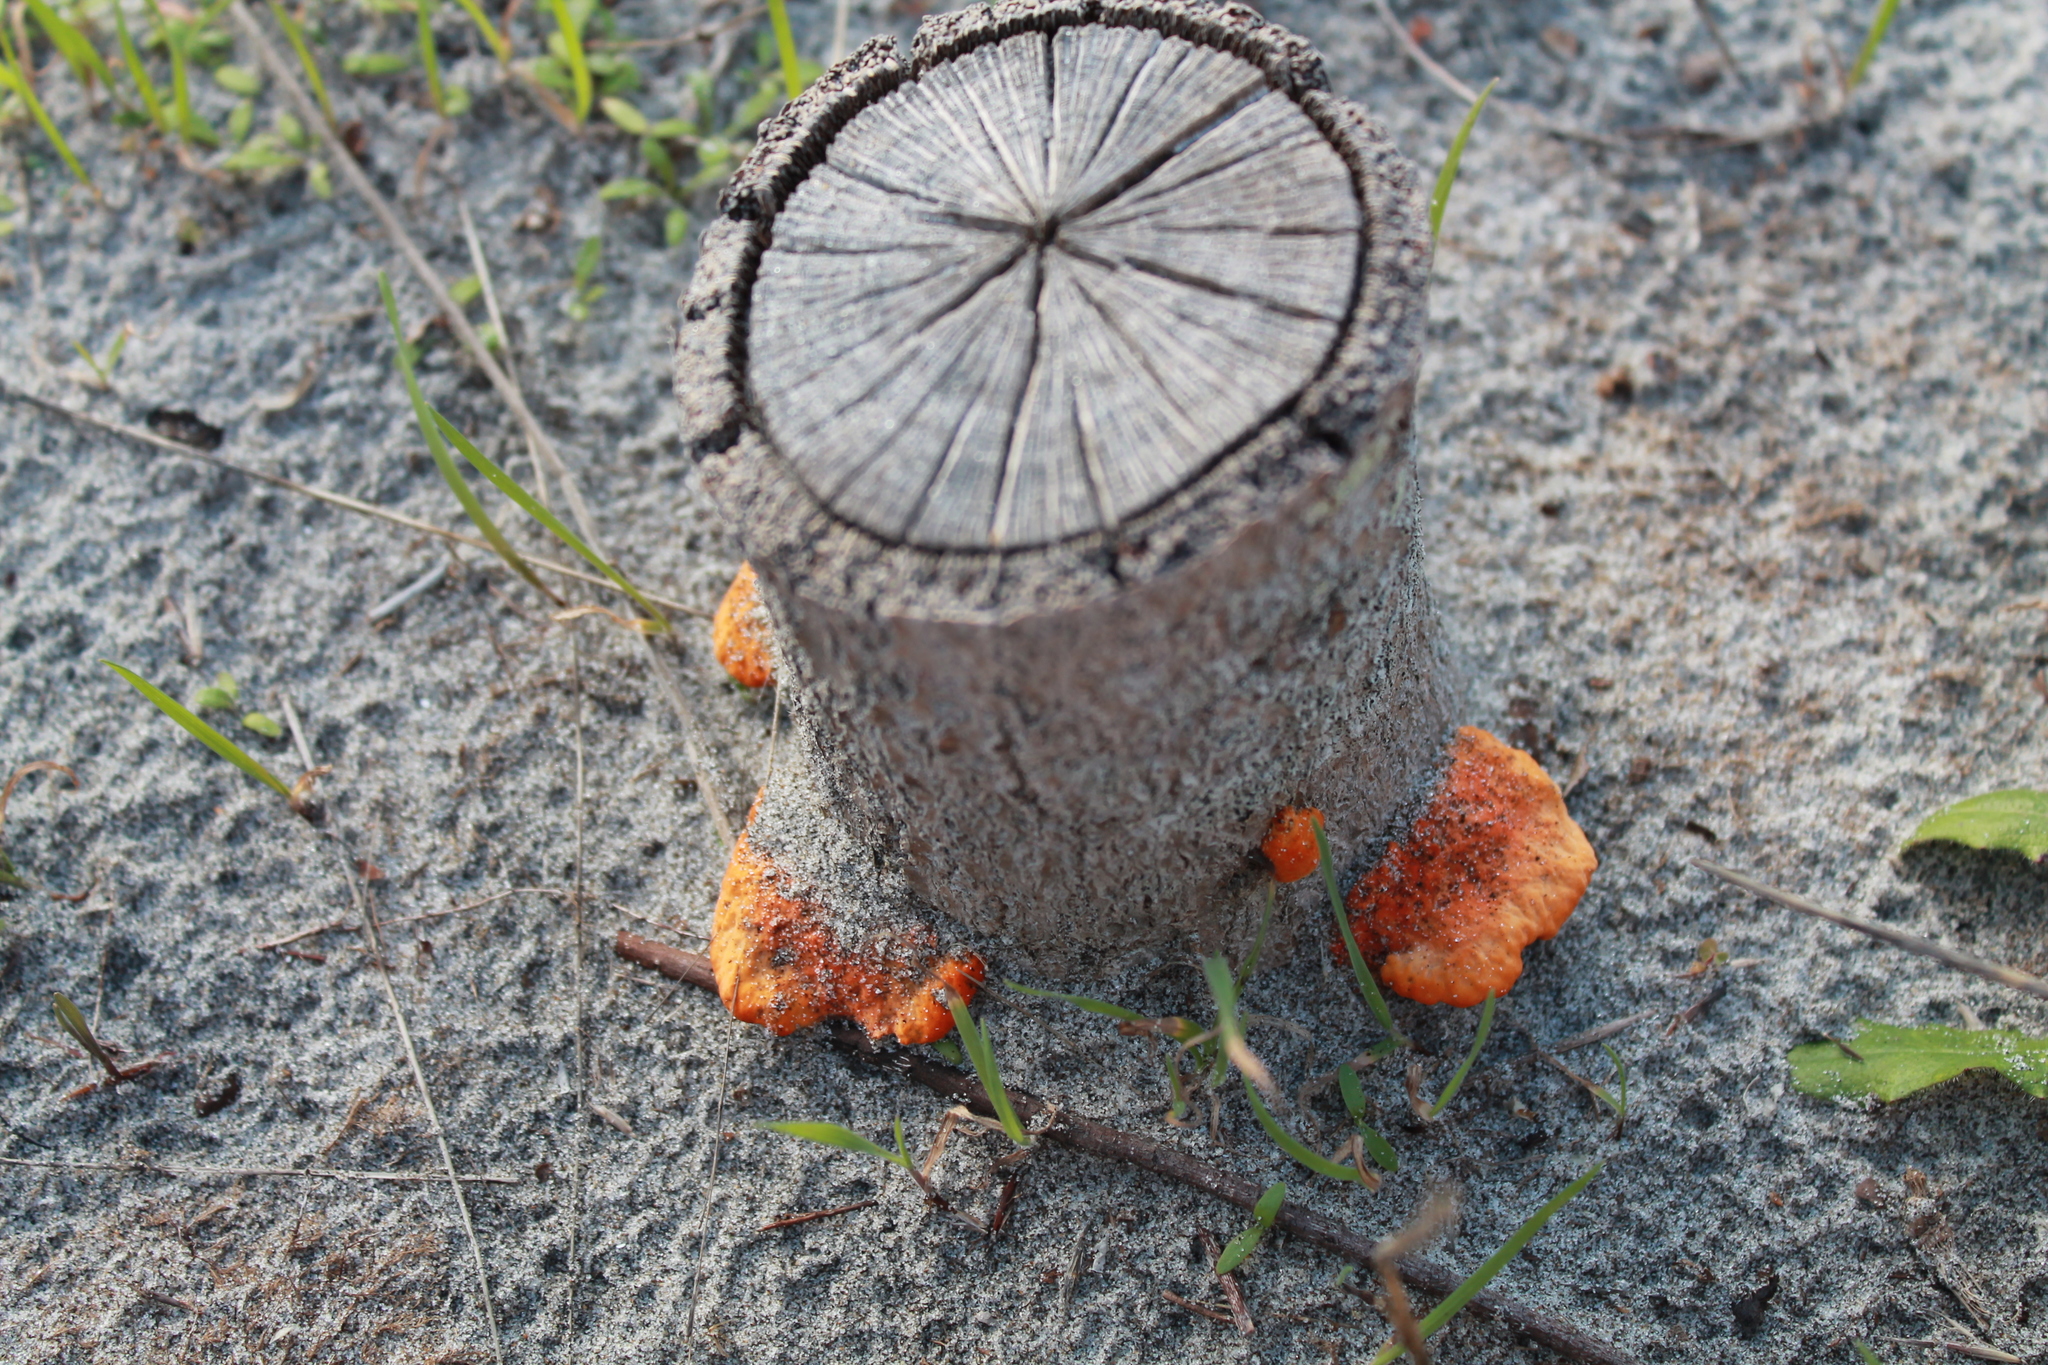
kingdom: Fungi
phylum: Basidiomycota
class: Agaricomycetes
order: Polyporales
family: Polyporaceae
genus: Trametes
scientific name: Trametes coccinea
